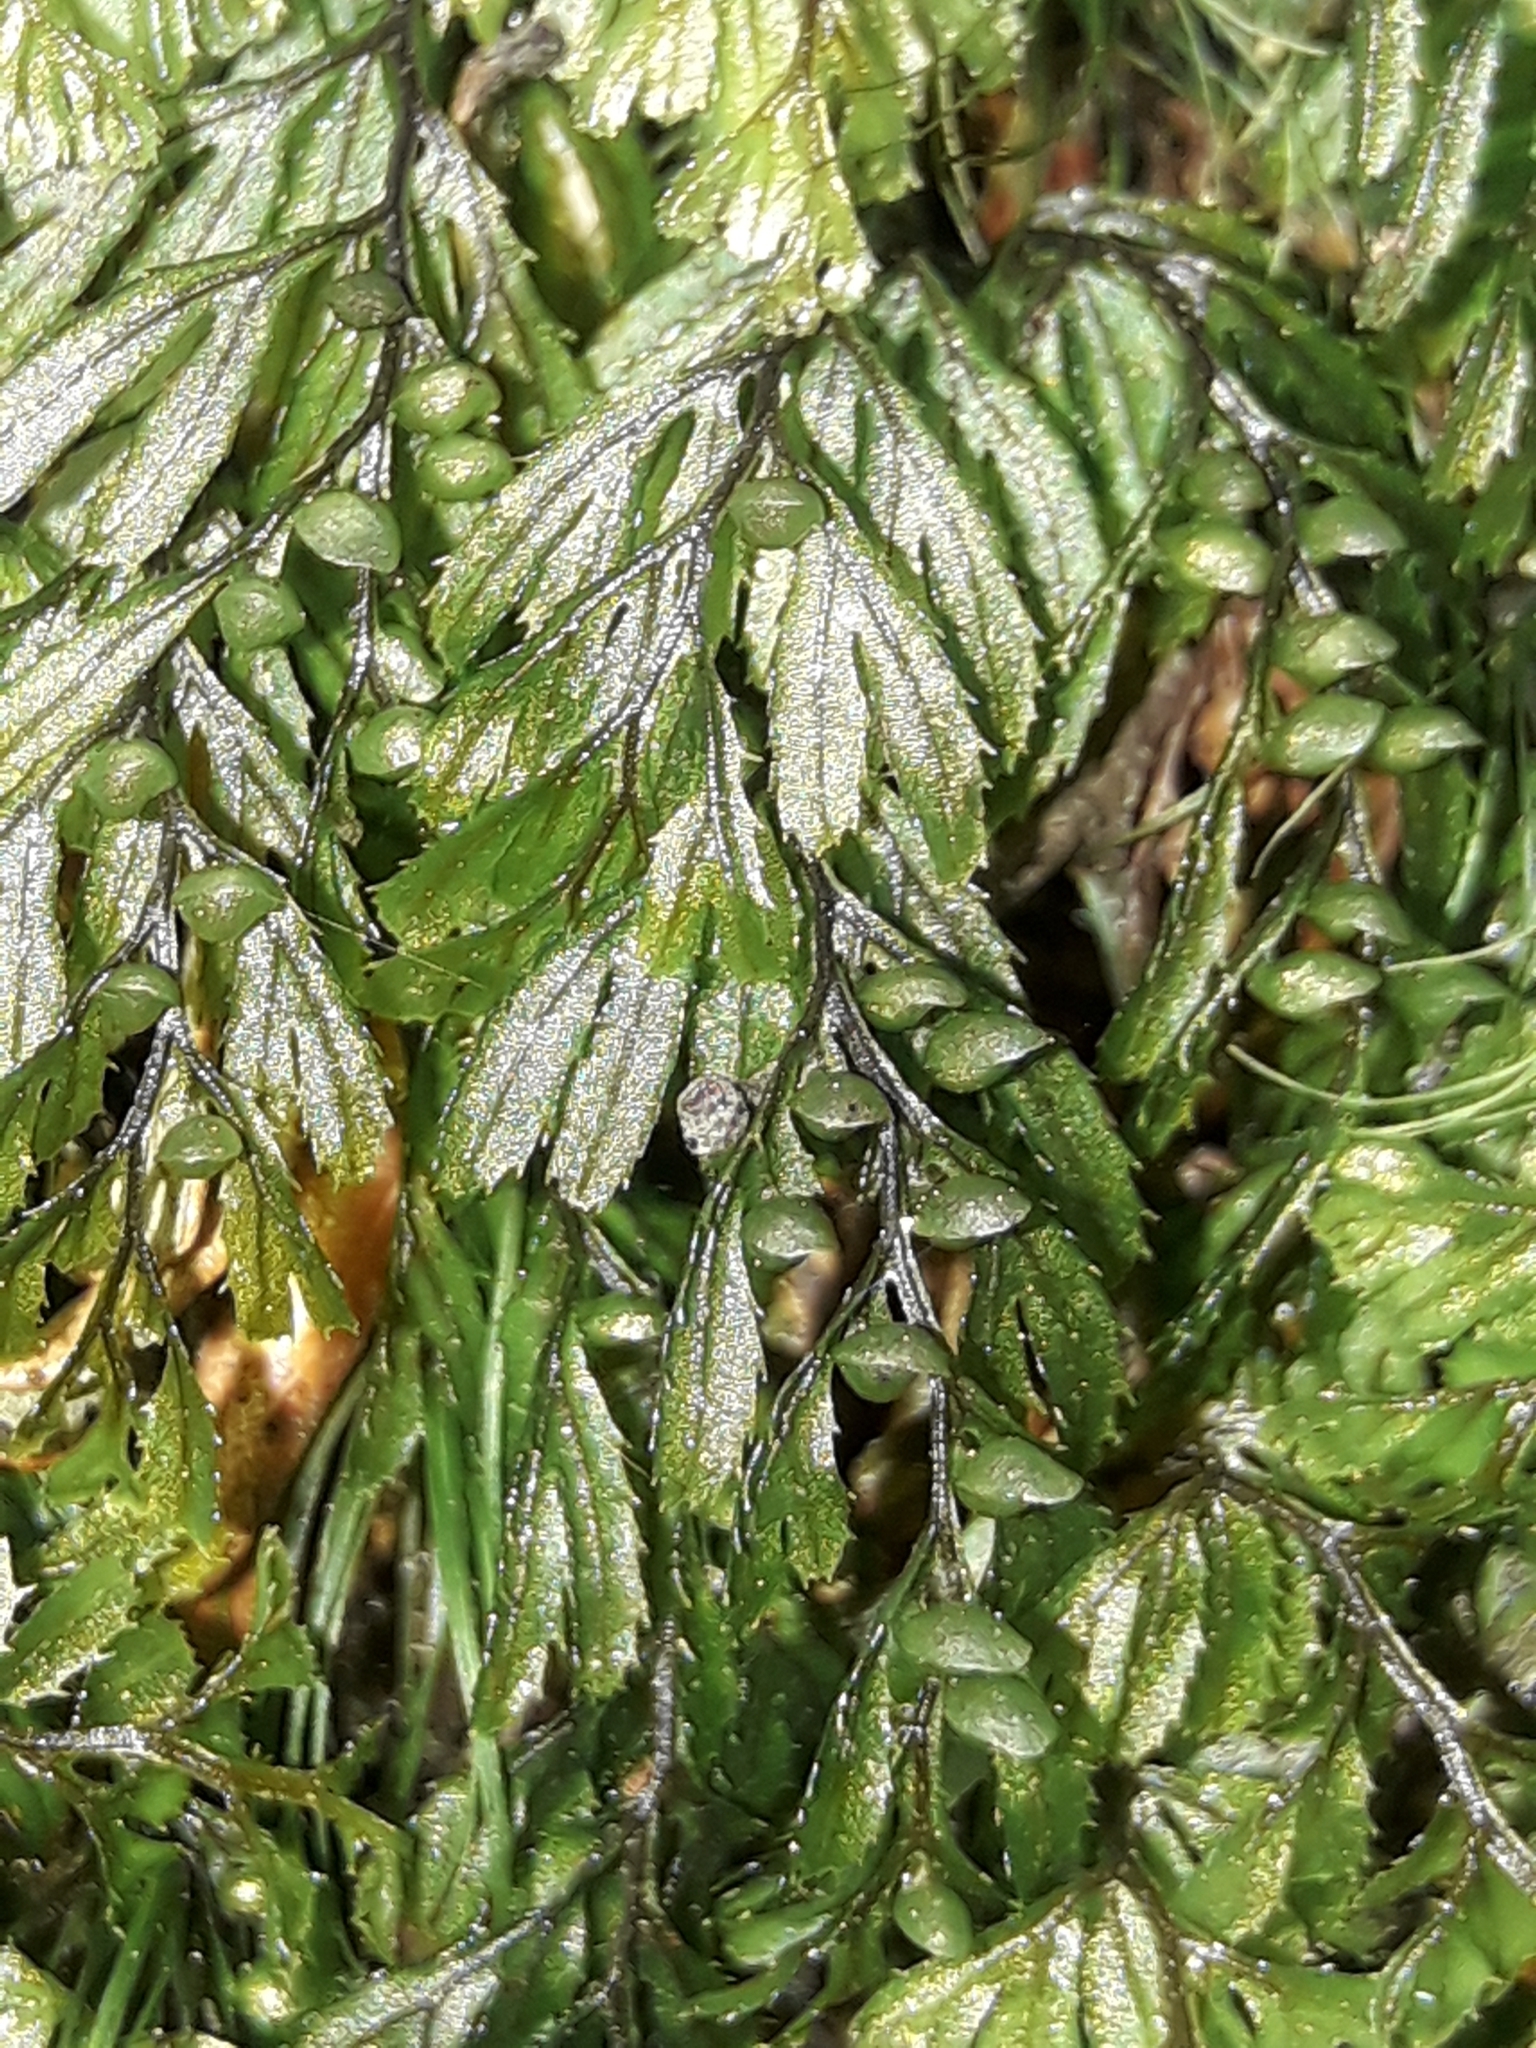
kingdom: Plantae
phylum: Tracheophyta
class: Polypodiopsida
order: Hymenophyllales
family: Hymenophyllaceae
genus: Hymenophyllum
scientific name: Hymenophyllum peltatum
